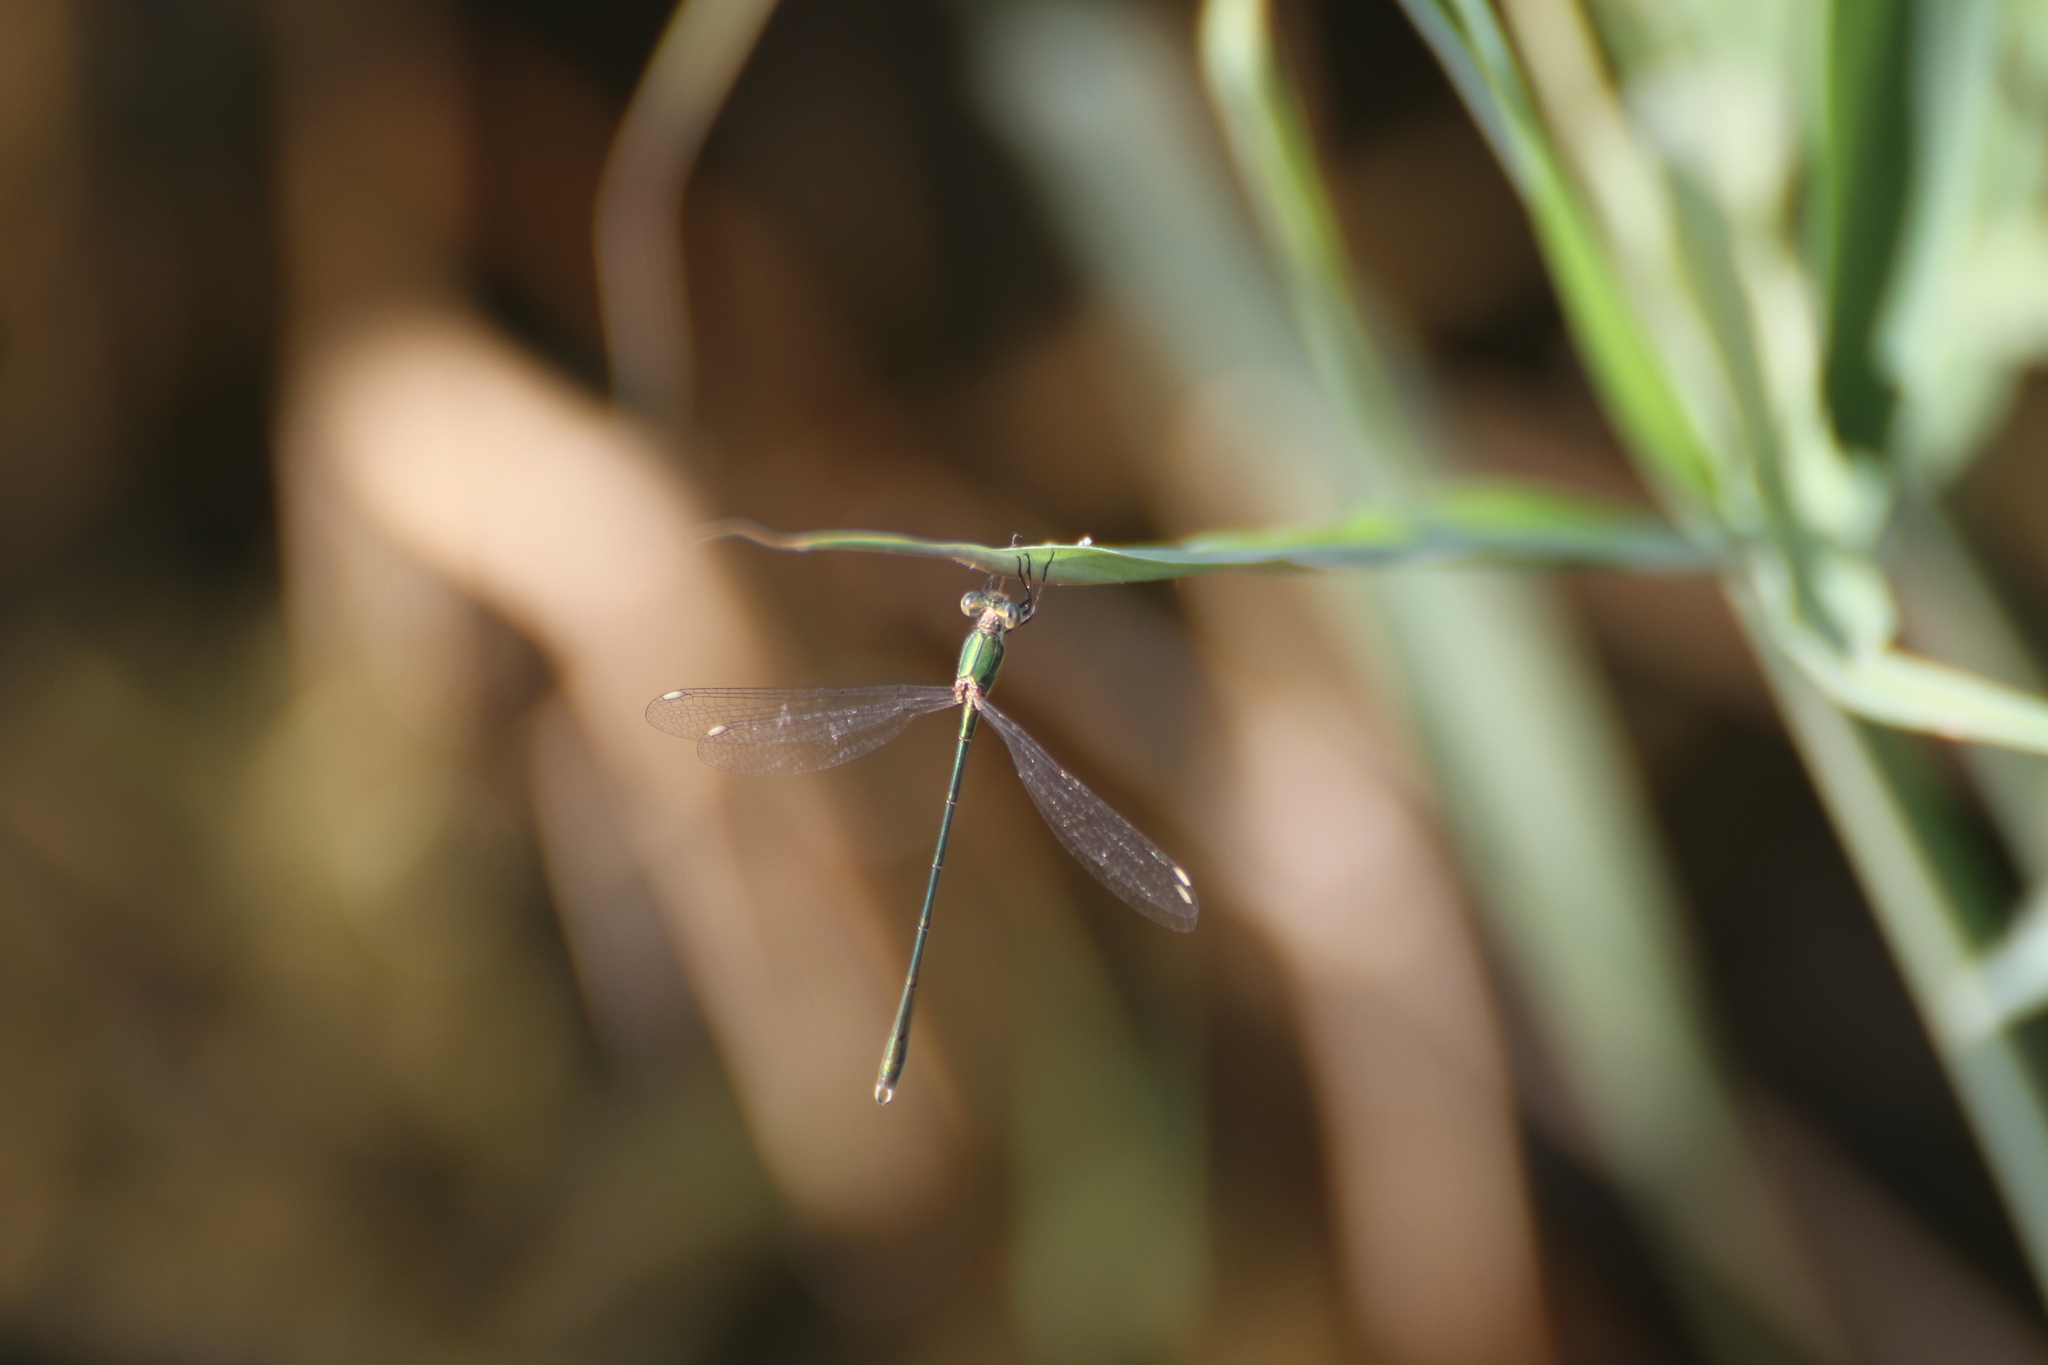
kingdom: Animalia
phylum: Arthropoda
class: Insecta
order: Odonata
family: Lestidae
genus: Chalcolestes
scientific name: Chalcolestes viridis
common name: Green emerald damselfly
